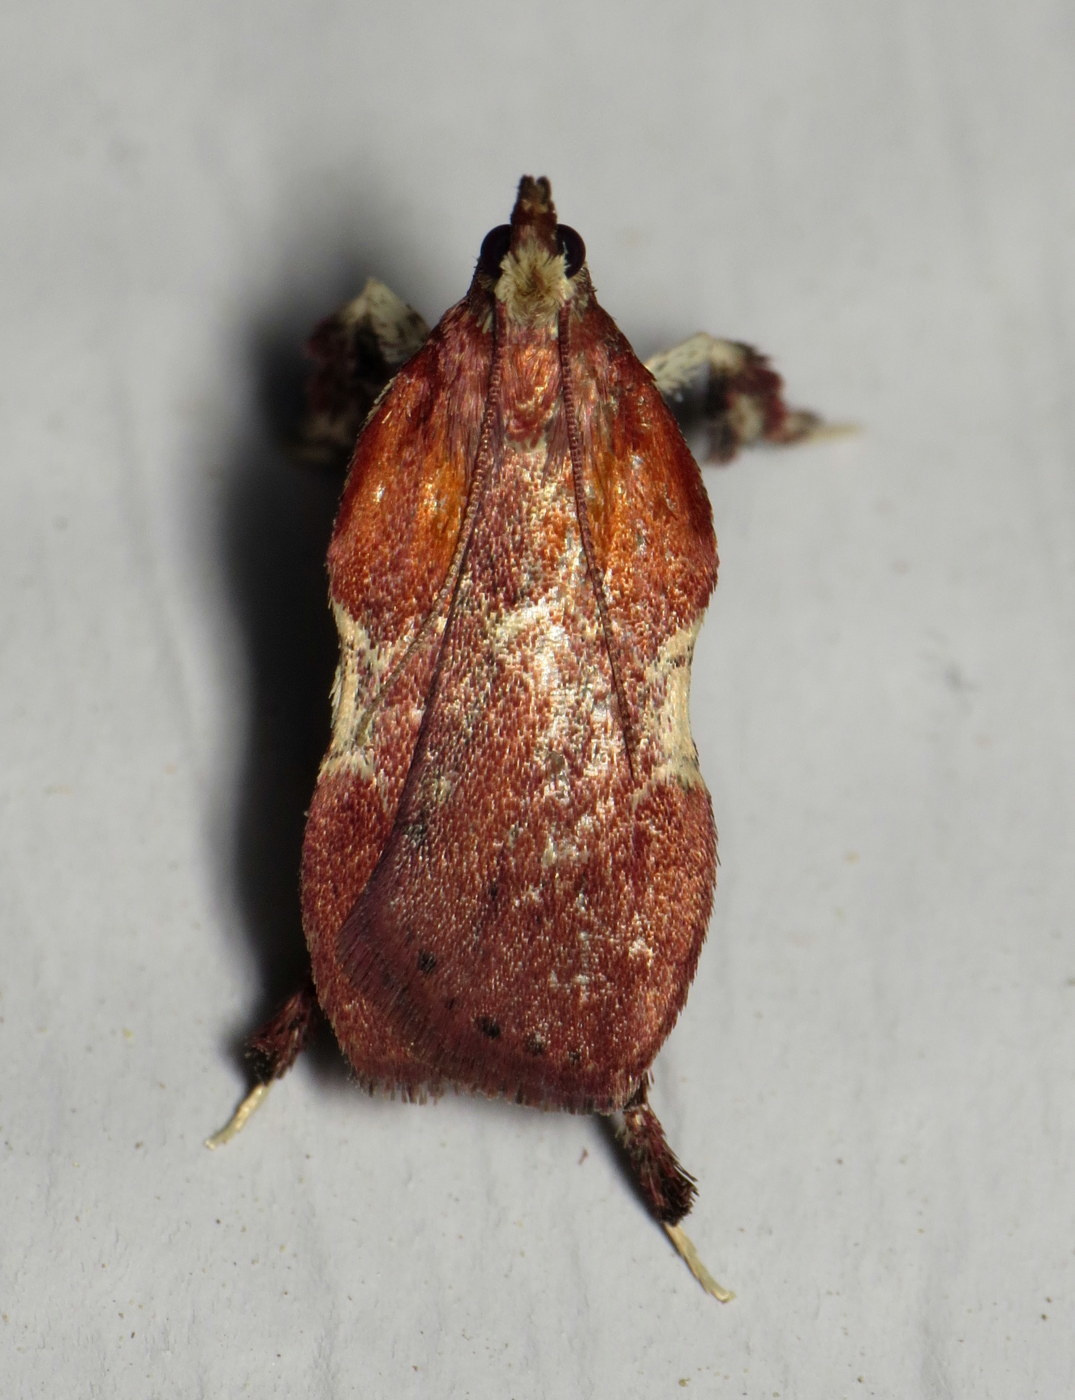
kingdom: Animalia
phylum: Arthropoda
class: Insecta
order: Lepidoptera
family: Pyralidae
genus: Galasa
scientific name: Galasa nigrinodis
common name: Boxwood leaftier moth
